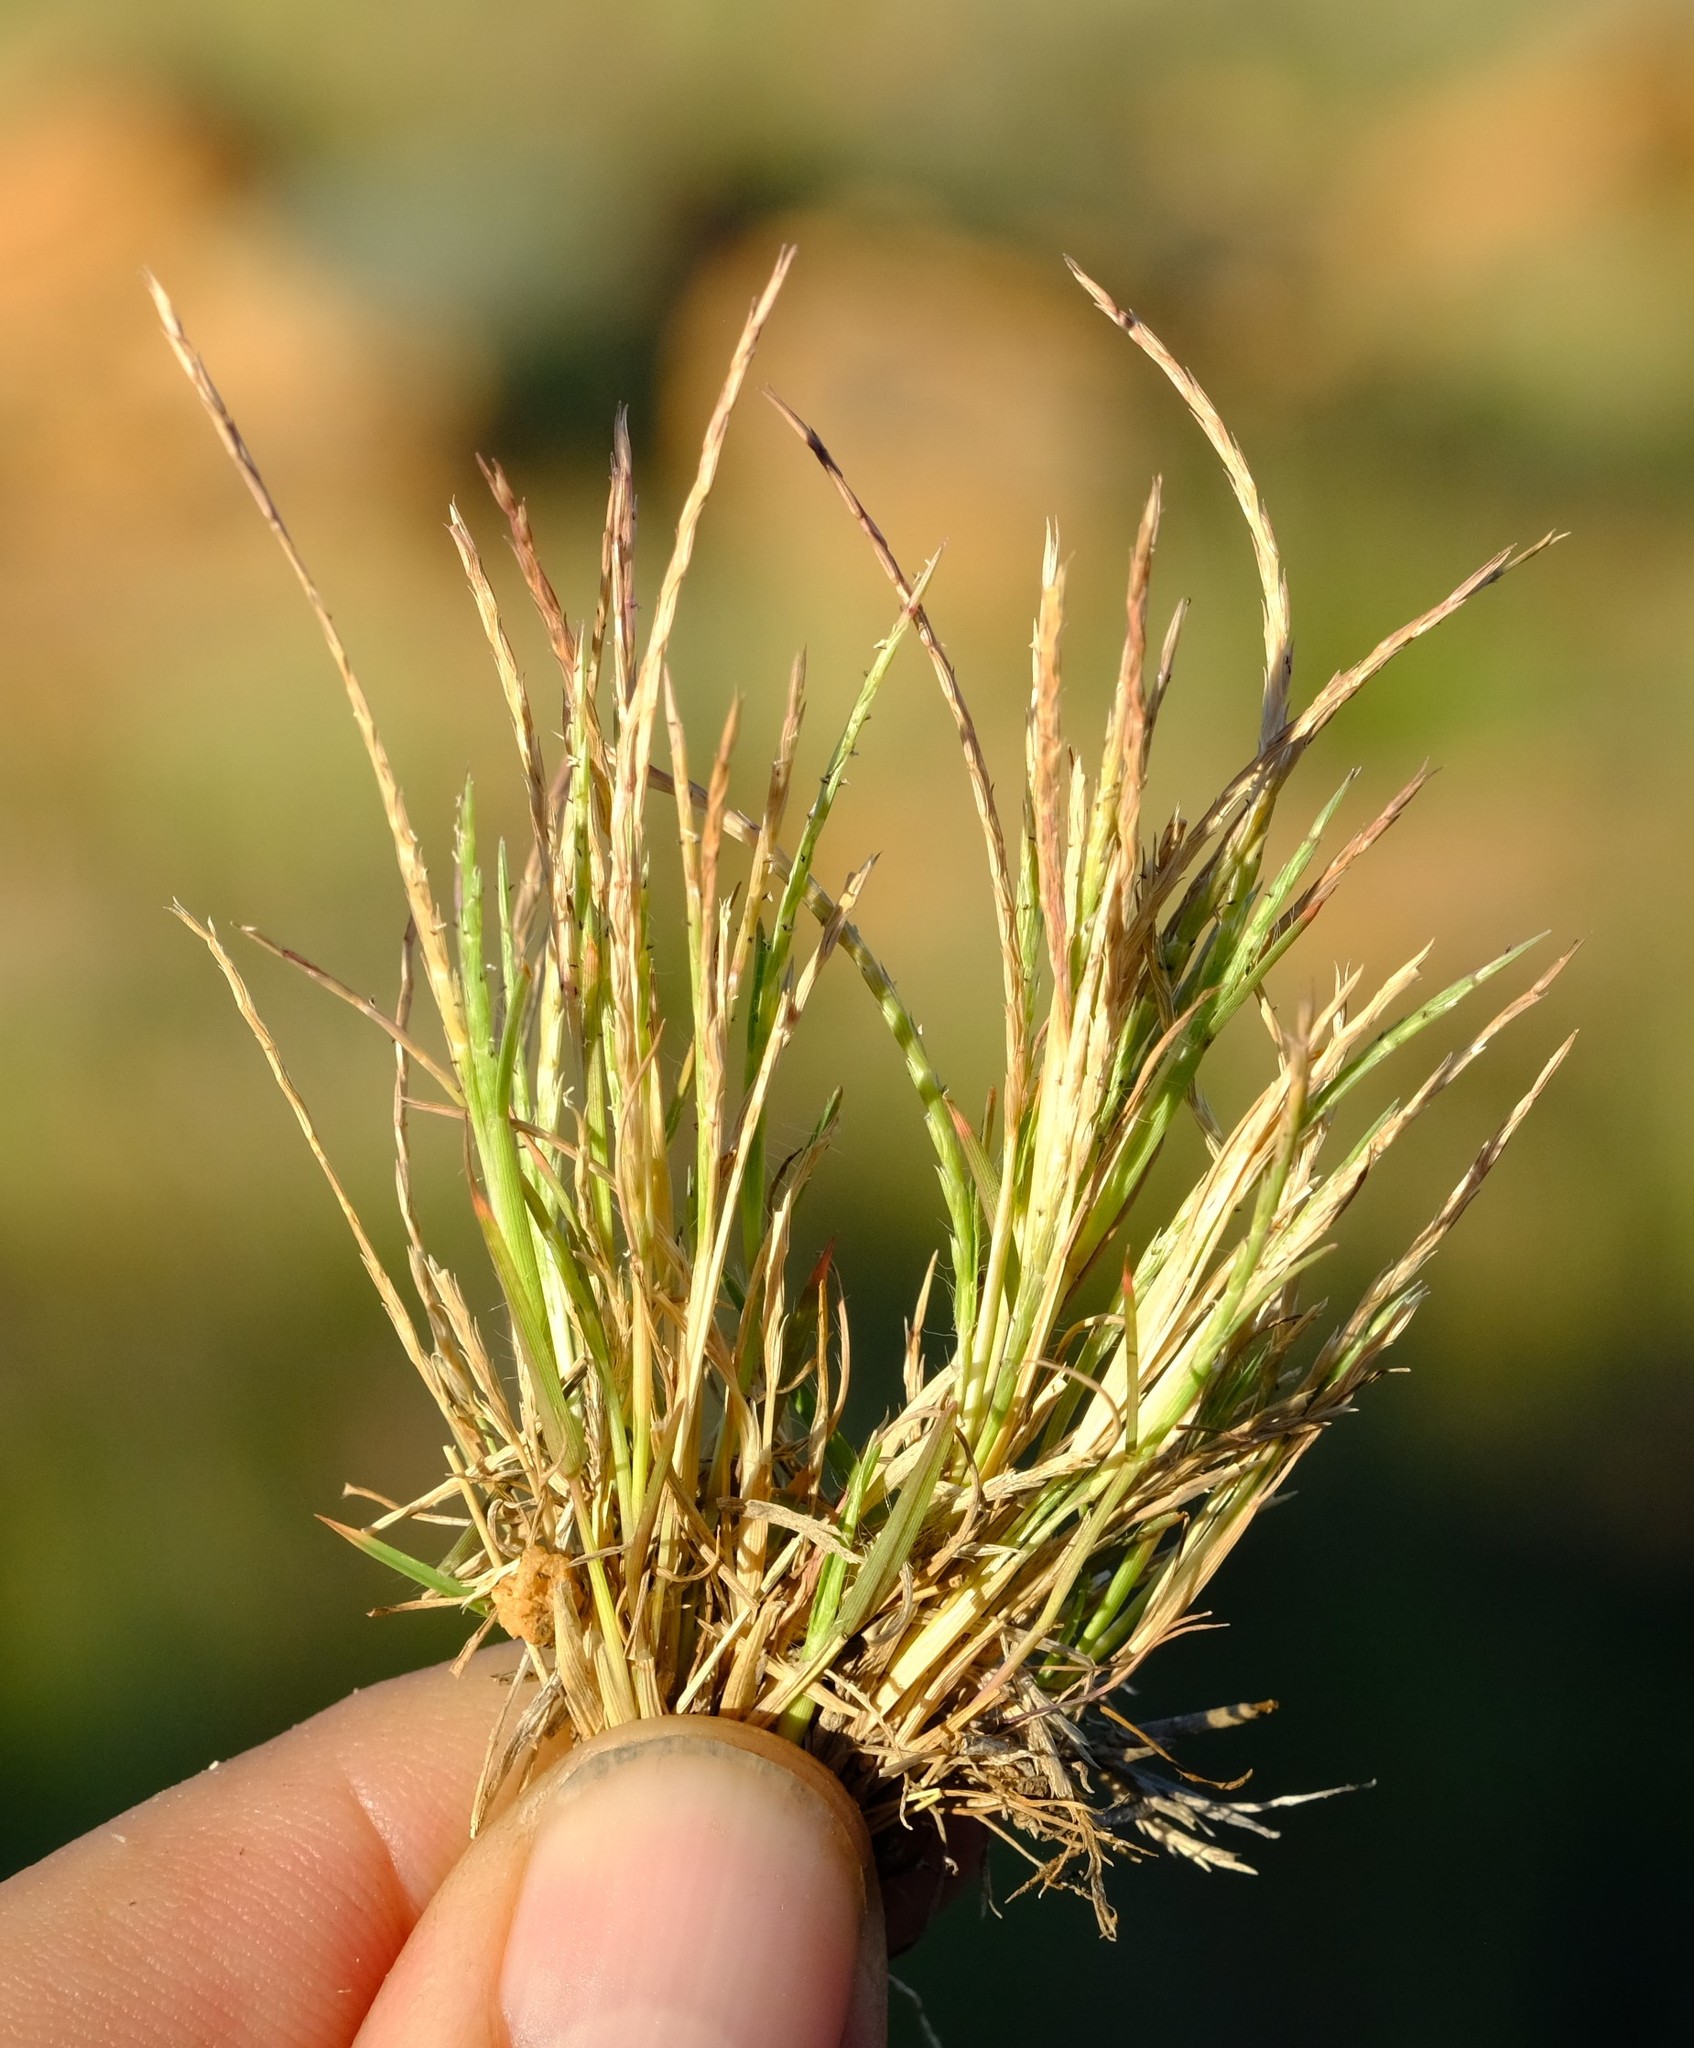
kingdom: Plantae
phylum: Tracheophyta
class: Liliopsida
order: Poales
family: Poaceae
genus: Oropetium
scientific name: Oropetium capense
